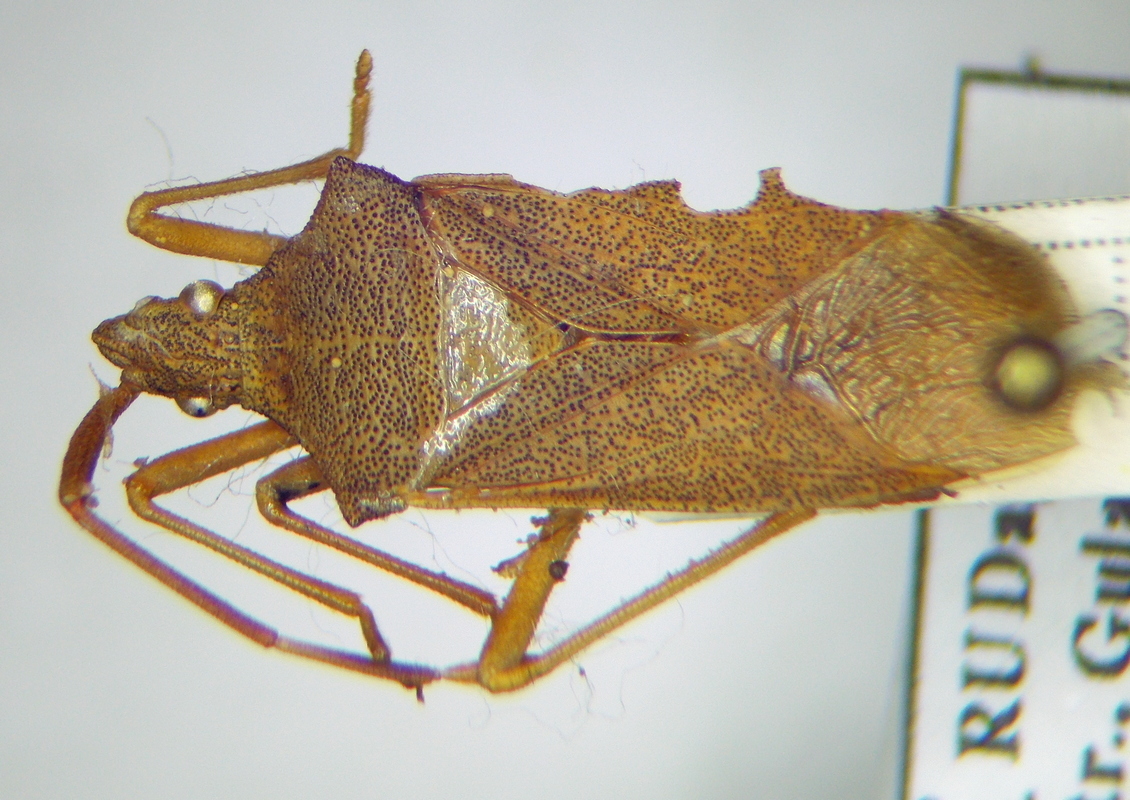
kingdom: Animalia
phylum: Arthropoda
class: Insecta
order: Hemiptera
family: Coreidae
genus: Gonocerus
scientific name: Gonocerus acuteangulatus
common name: Box bug
